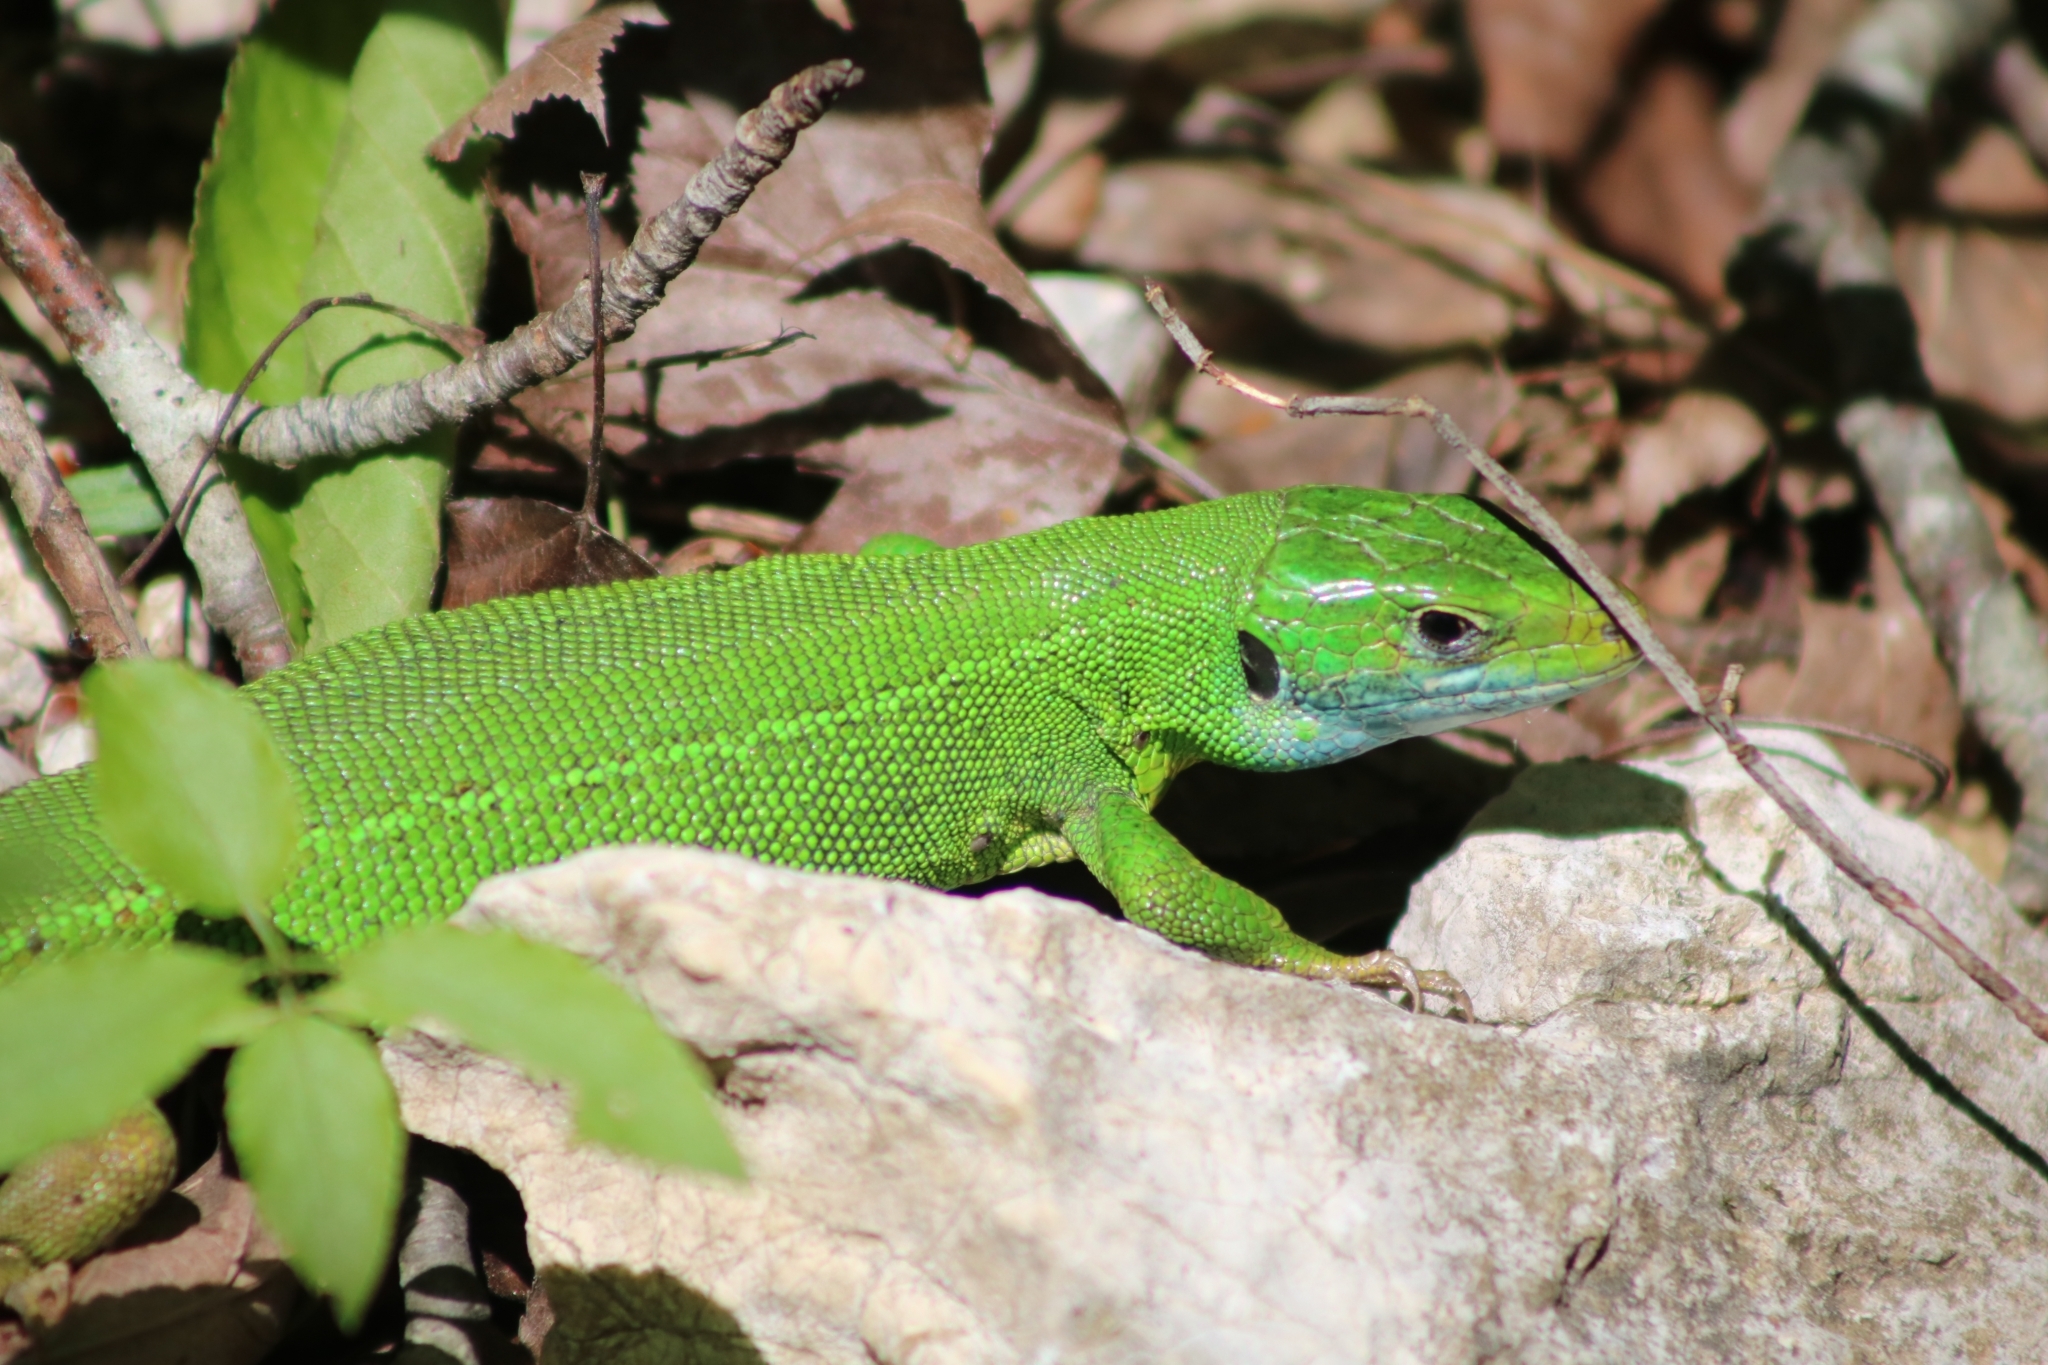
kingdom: Animalia
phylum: Chordata
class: Squamata
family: Lacertidae
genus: Lacerta
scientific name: Lacerta viridis
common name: European green lizard
